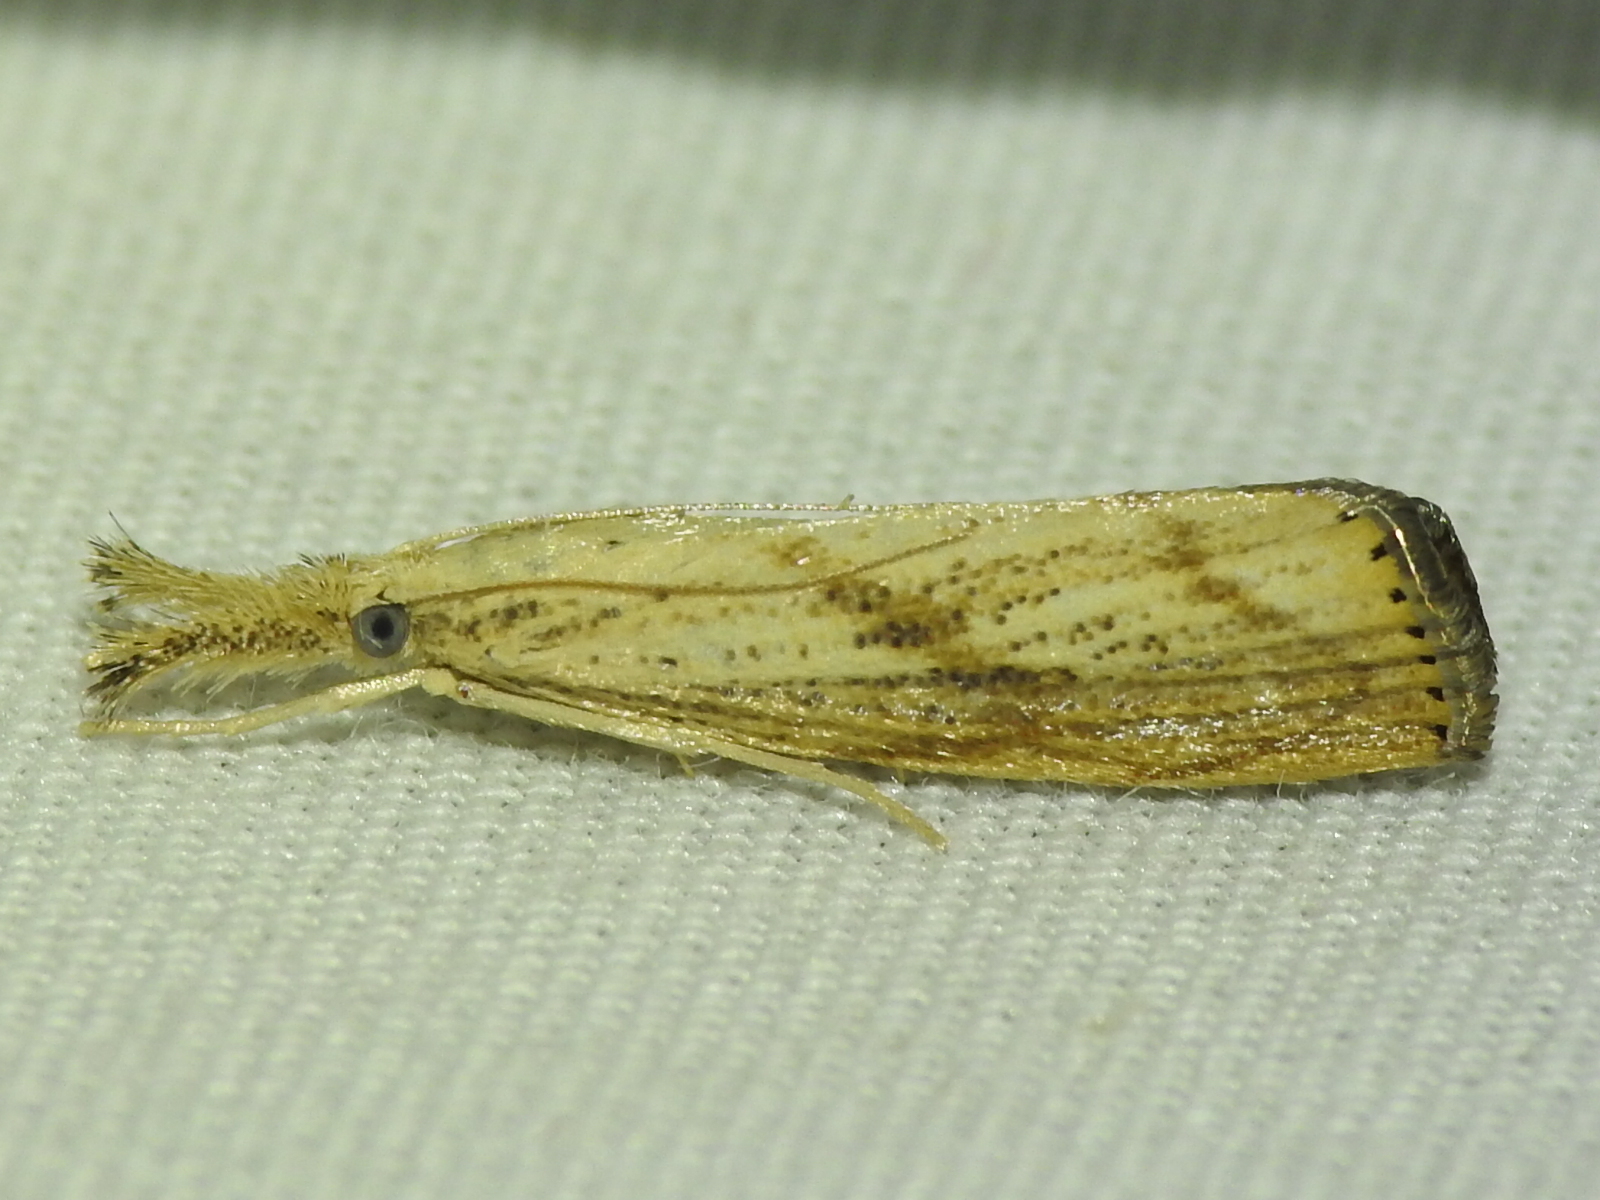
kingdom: Animalia
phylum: Arthropoda
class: Insecta
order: Lepidoptera
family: Crambidae
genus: Agriphila
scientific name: Agriphila vulgivagellus
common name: Vagabond crambus moth
